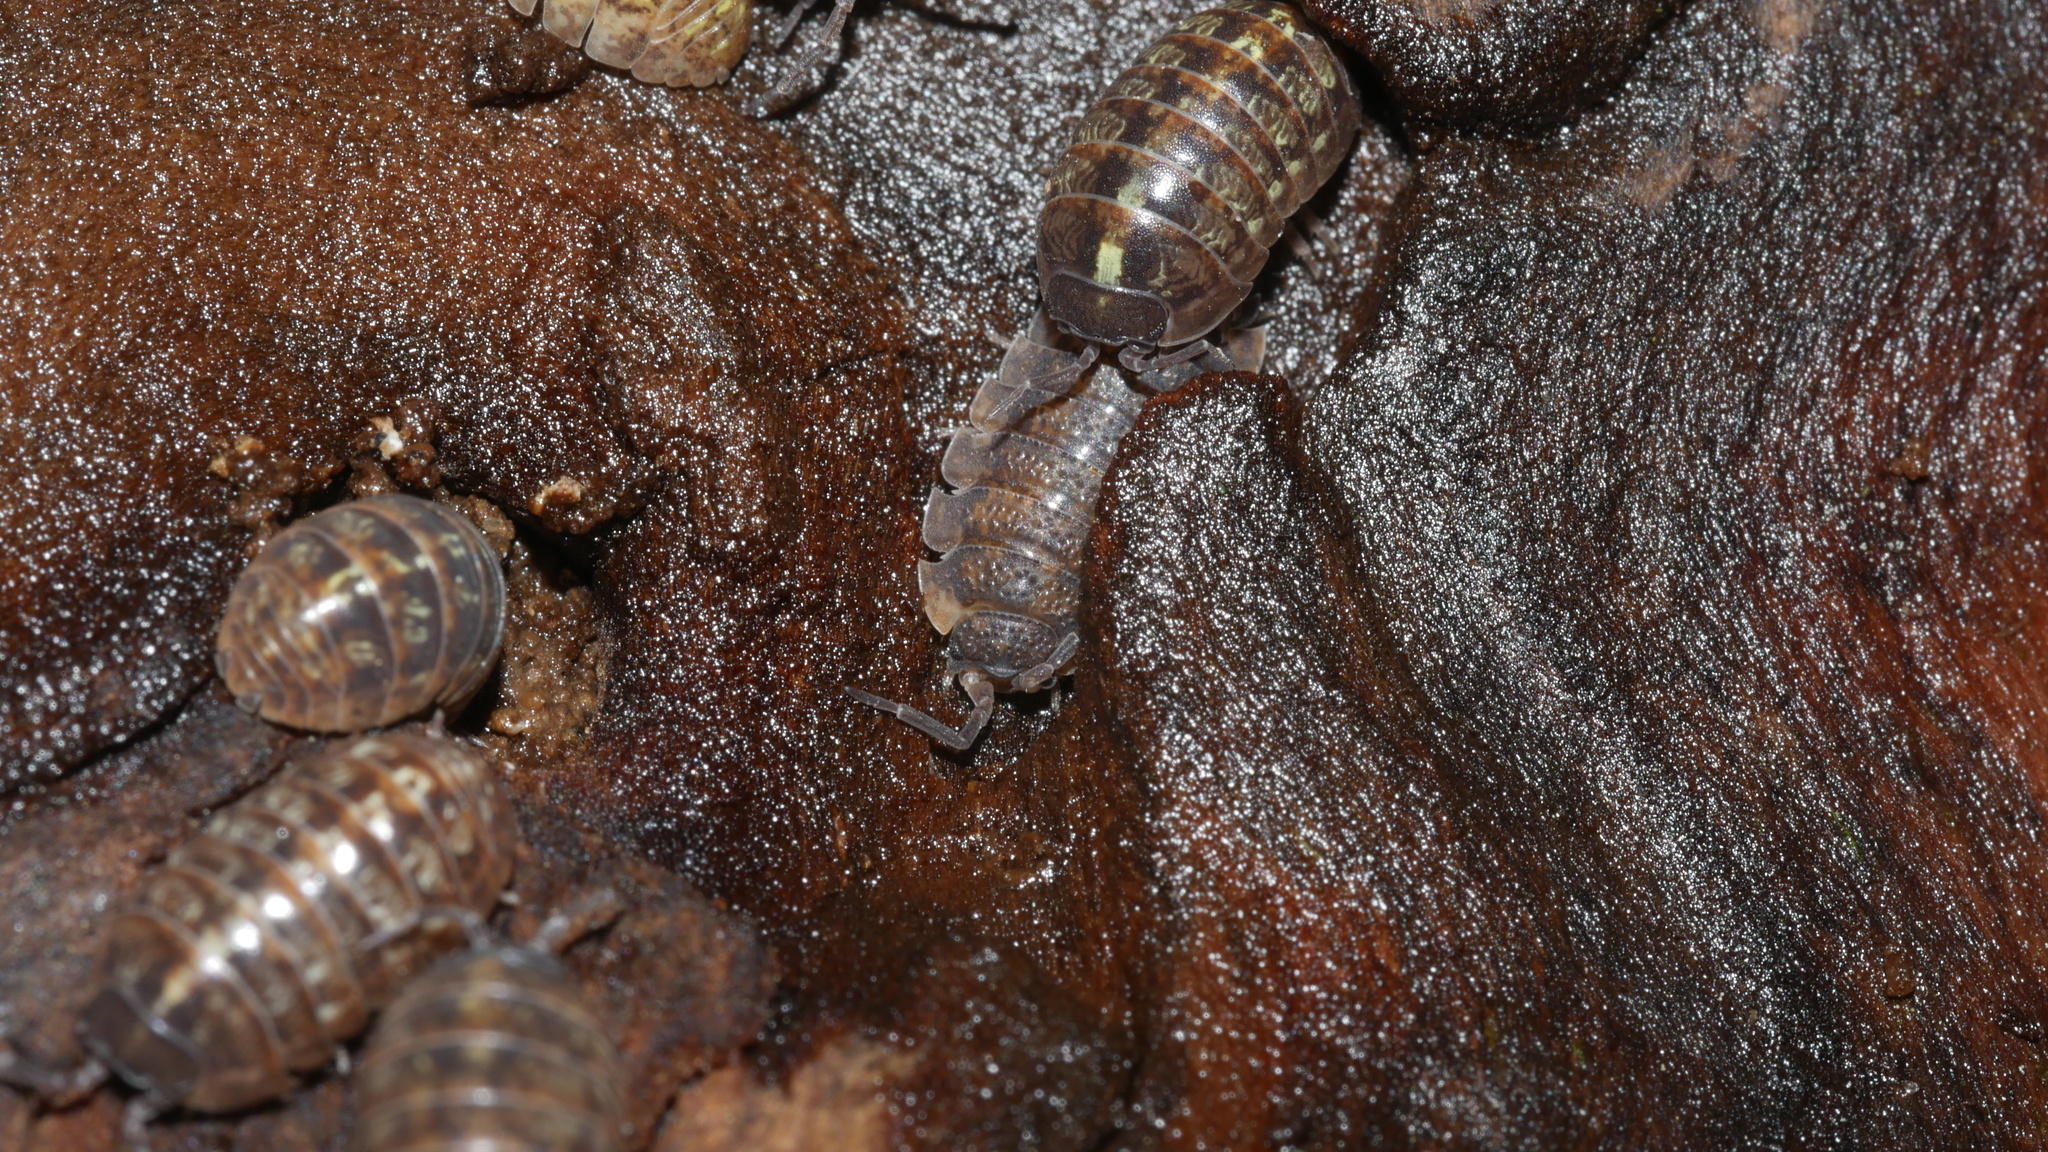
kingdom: Animalia
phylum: Arthropoda
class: Malacostraca
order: Isopoda
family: Porcellionidae
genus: Porcellio
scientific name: Porcellio scaber
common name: Common rough woodlouse
